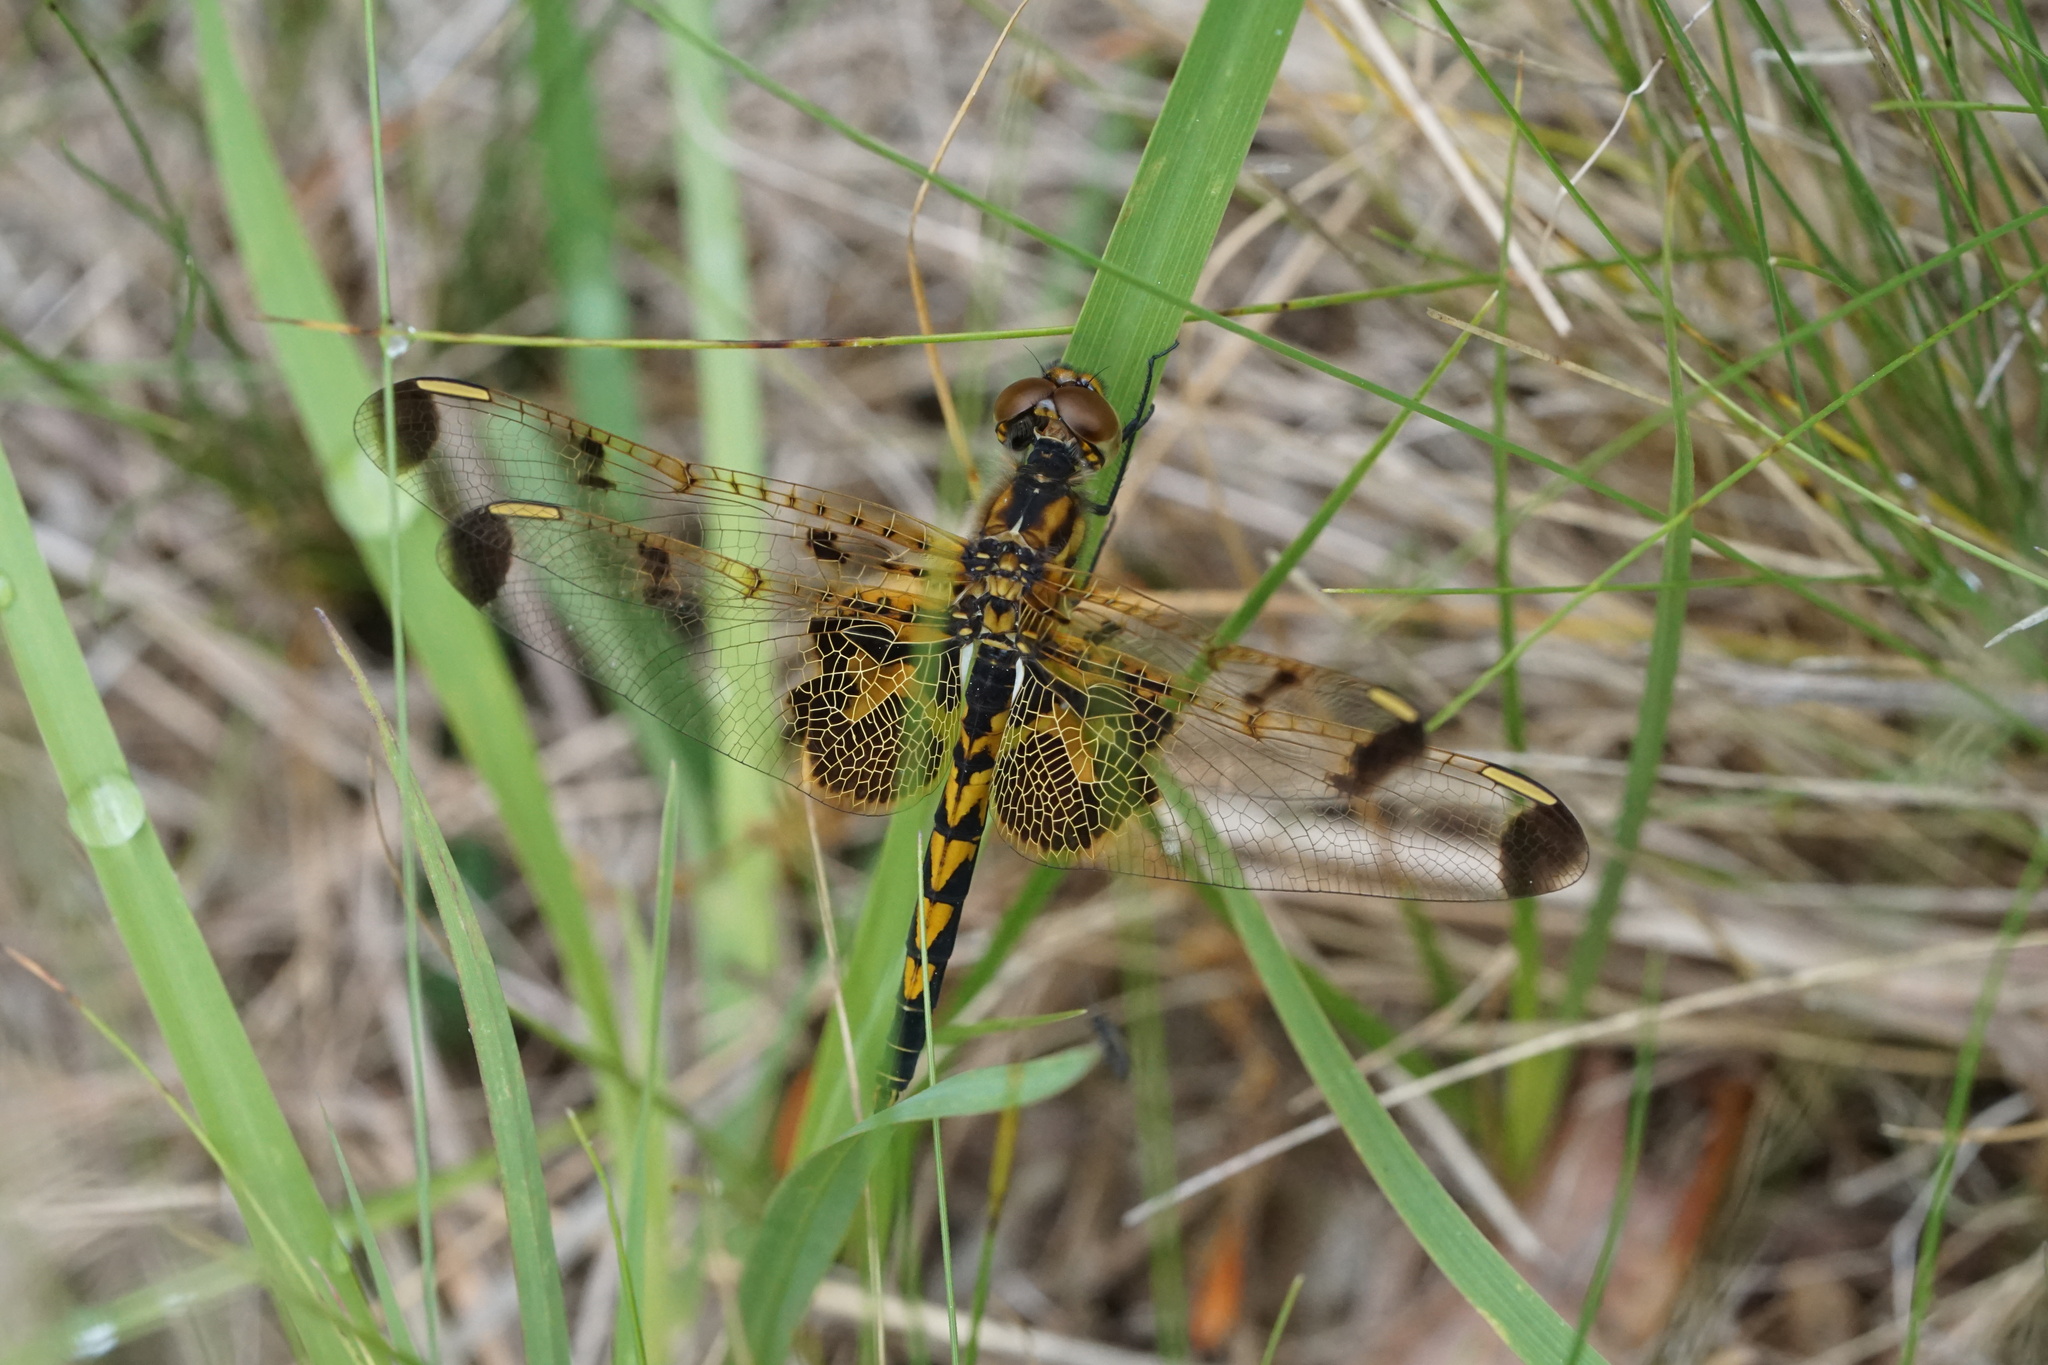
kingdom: Animalia
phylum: Arthropoda
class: Insecta
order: Odonata
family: Libellulidae
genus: Celithemis
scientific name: Celithemis elisa
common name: Calico pennant
